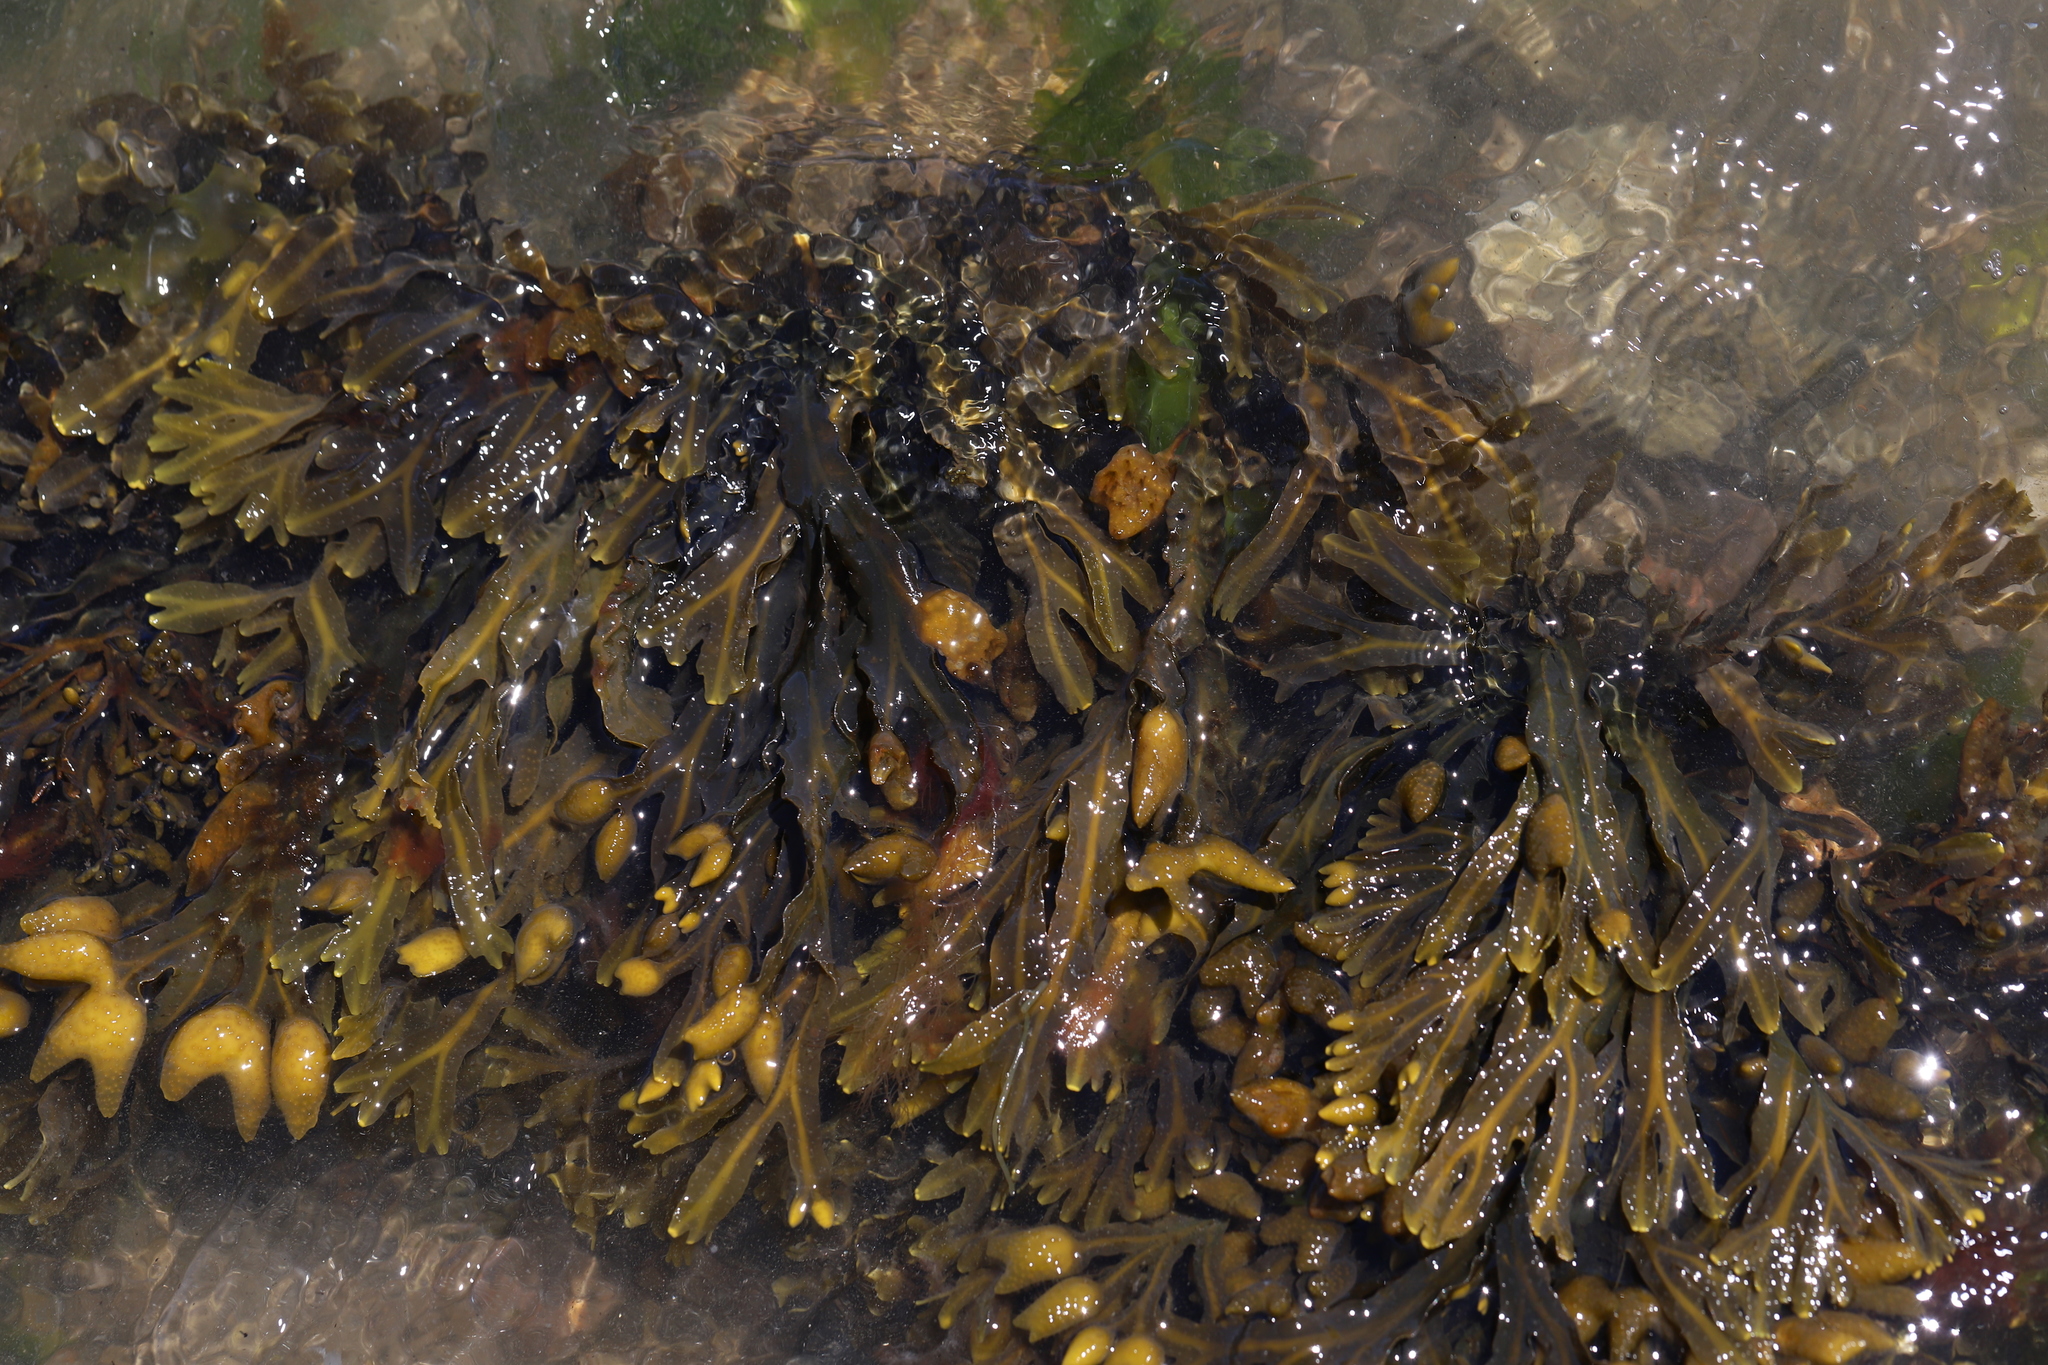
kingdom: Chromista
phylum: Ochrophyta
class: Phaeophyceae
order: Fucales
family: Fucaceae
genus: Fucus
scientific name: Fucus distichus
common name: Rockweed
